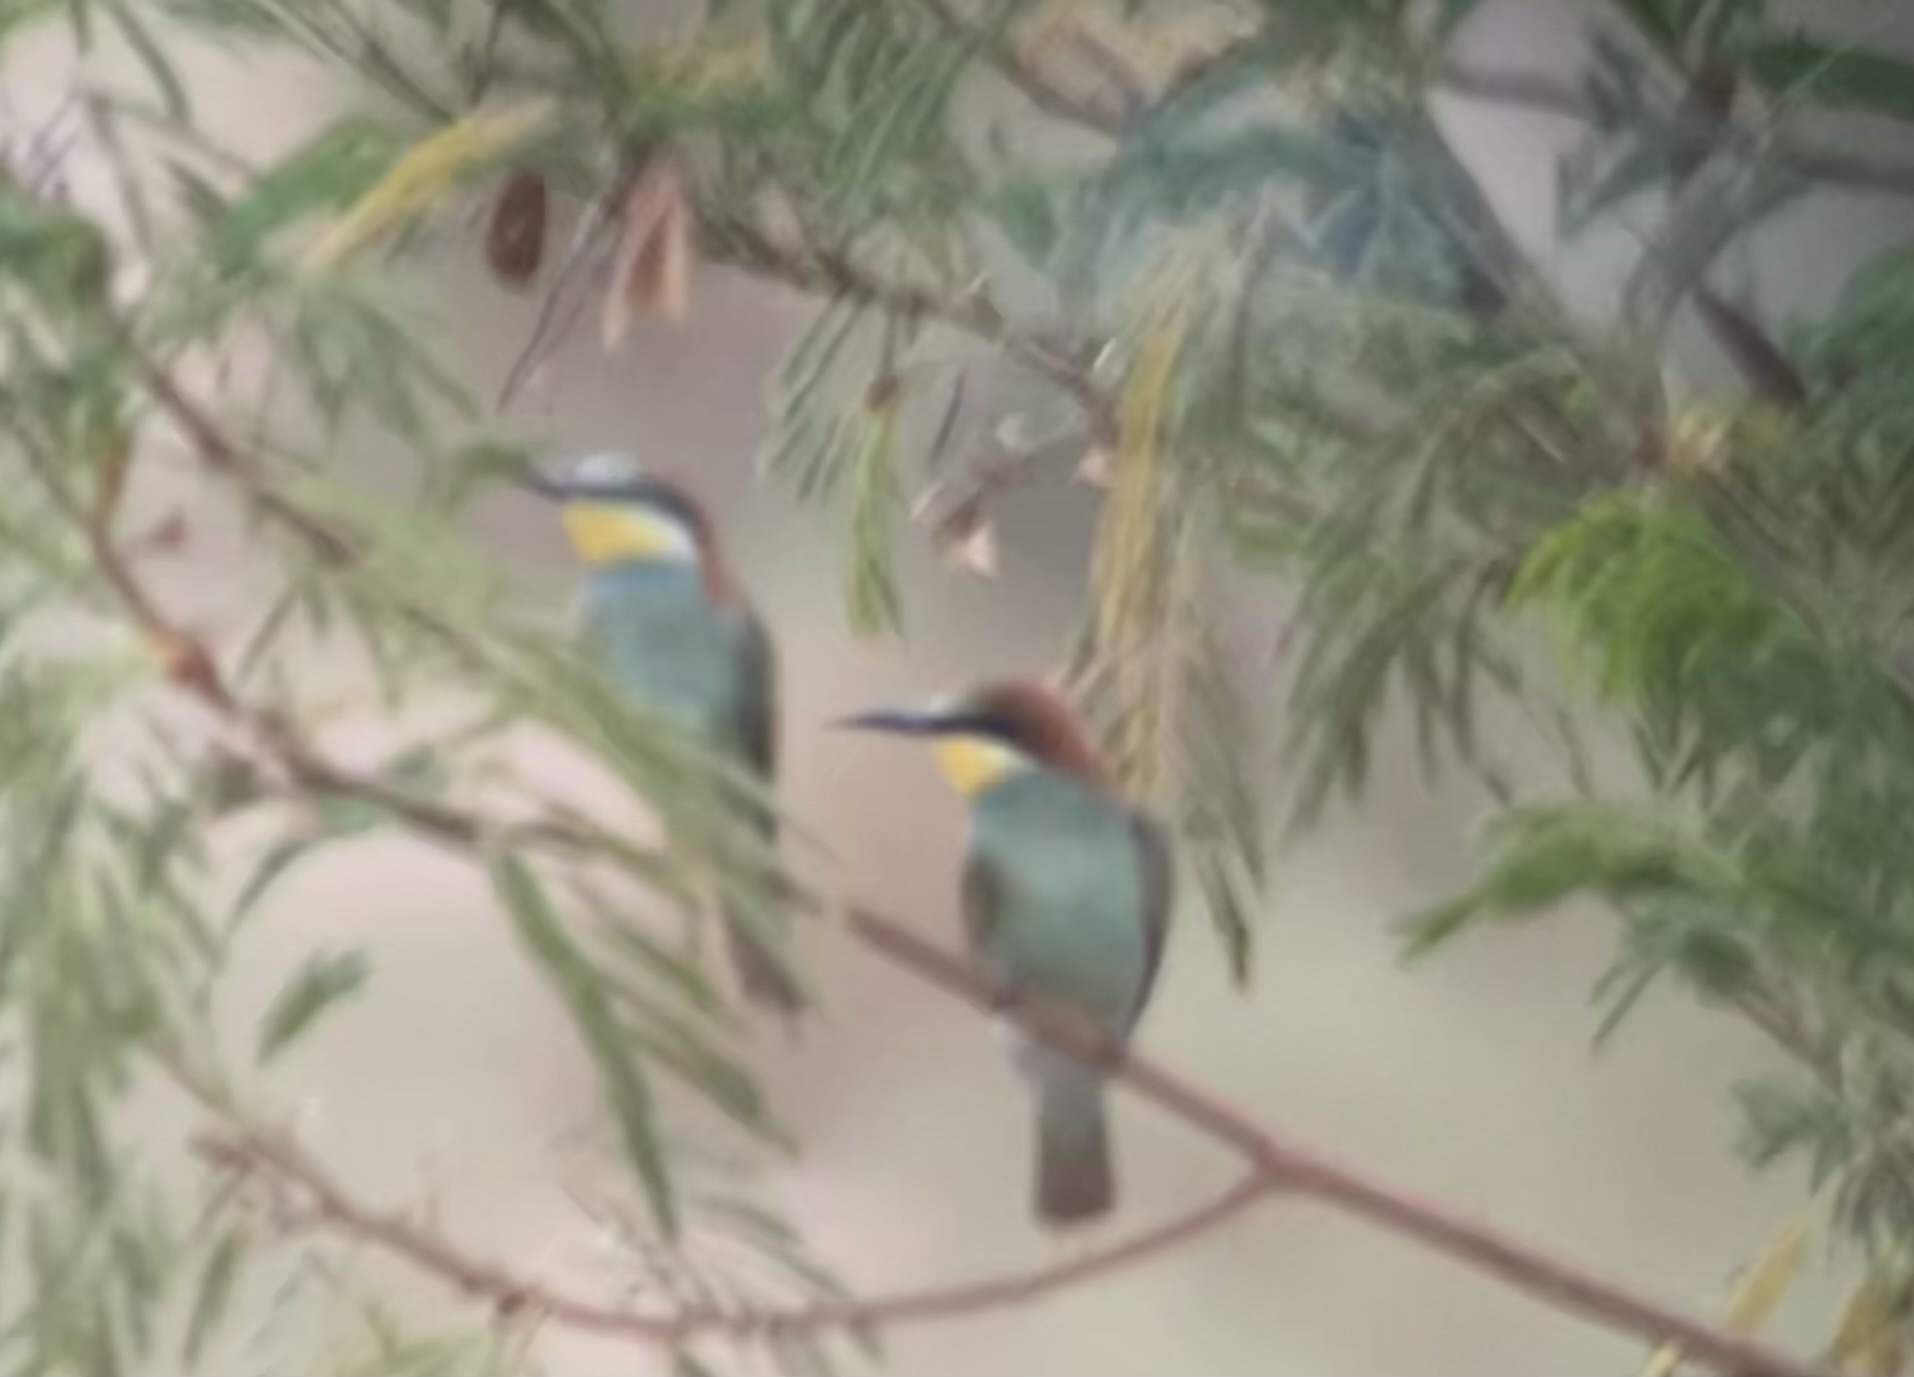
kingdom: Animalia
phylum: Chordata
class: Aves
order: Coraciiformes
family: Meropidae
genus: Merops
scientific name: Merops apiaster
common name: European bee-eater
